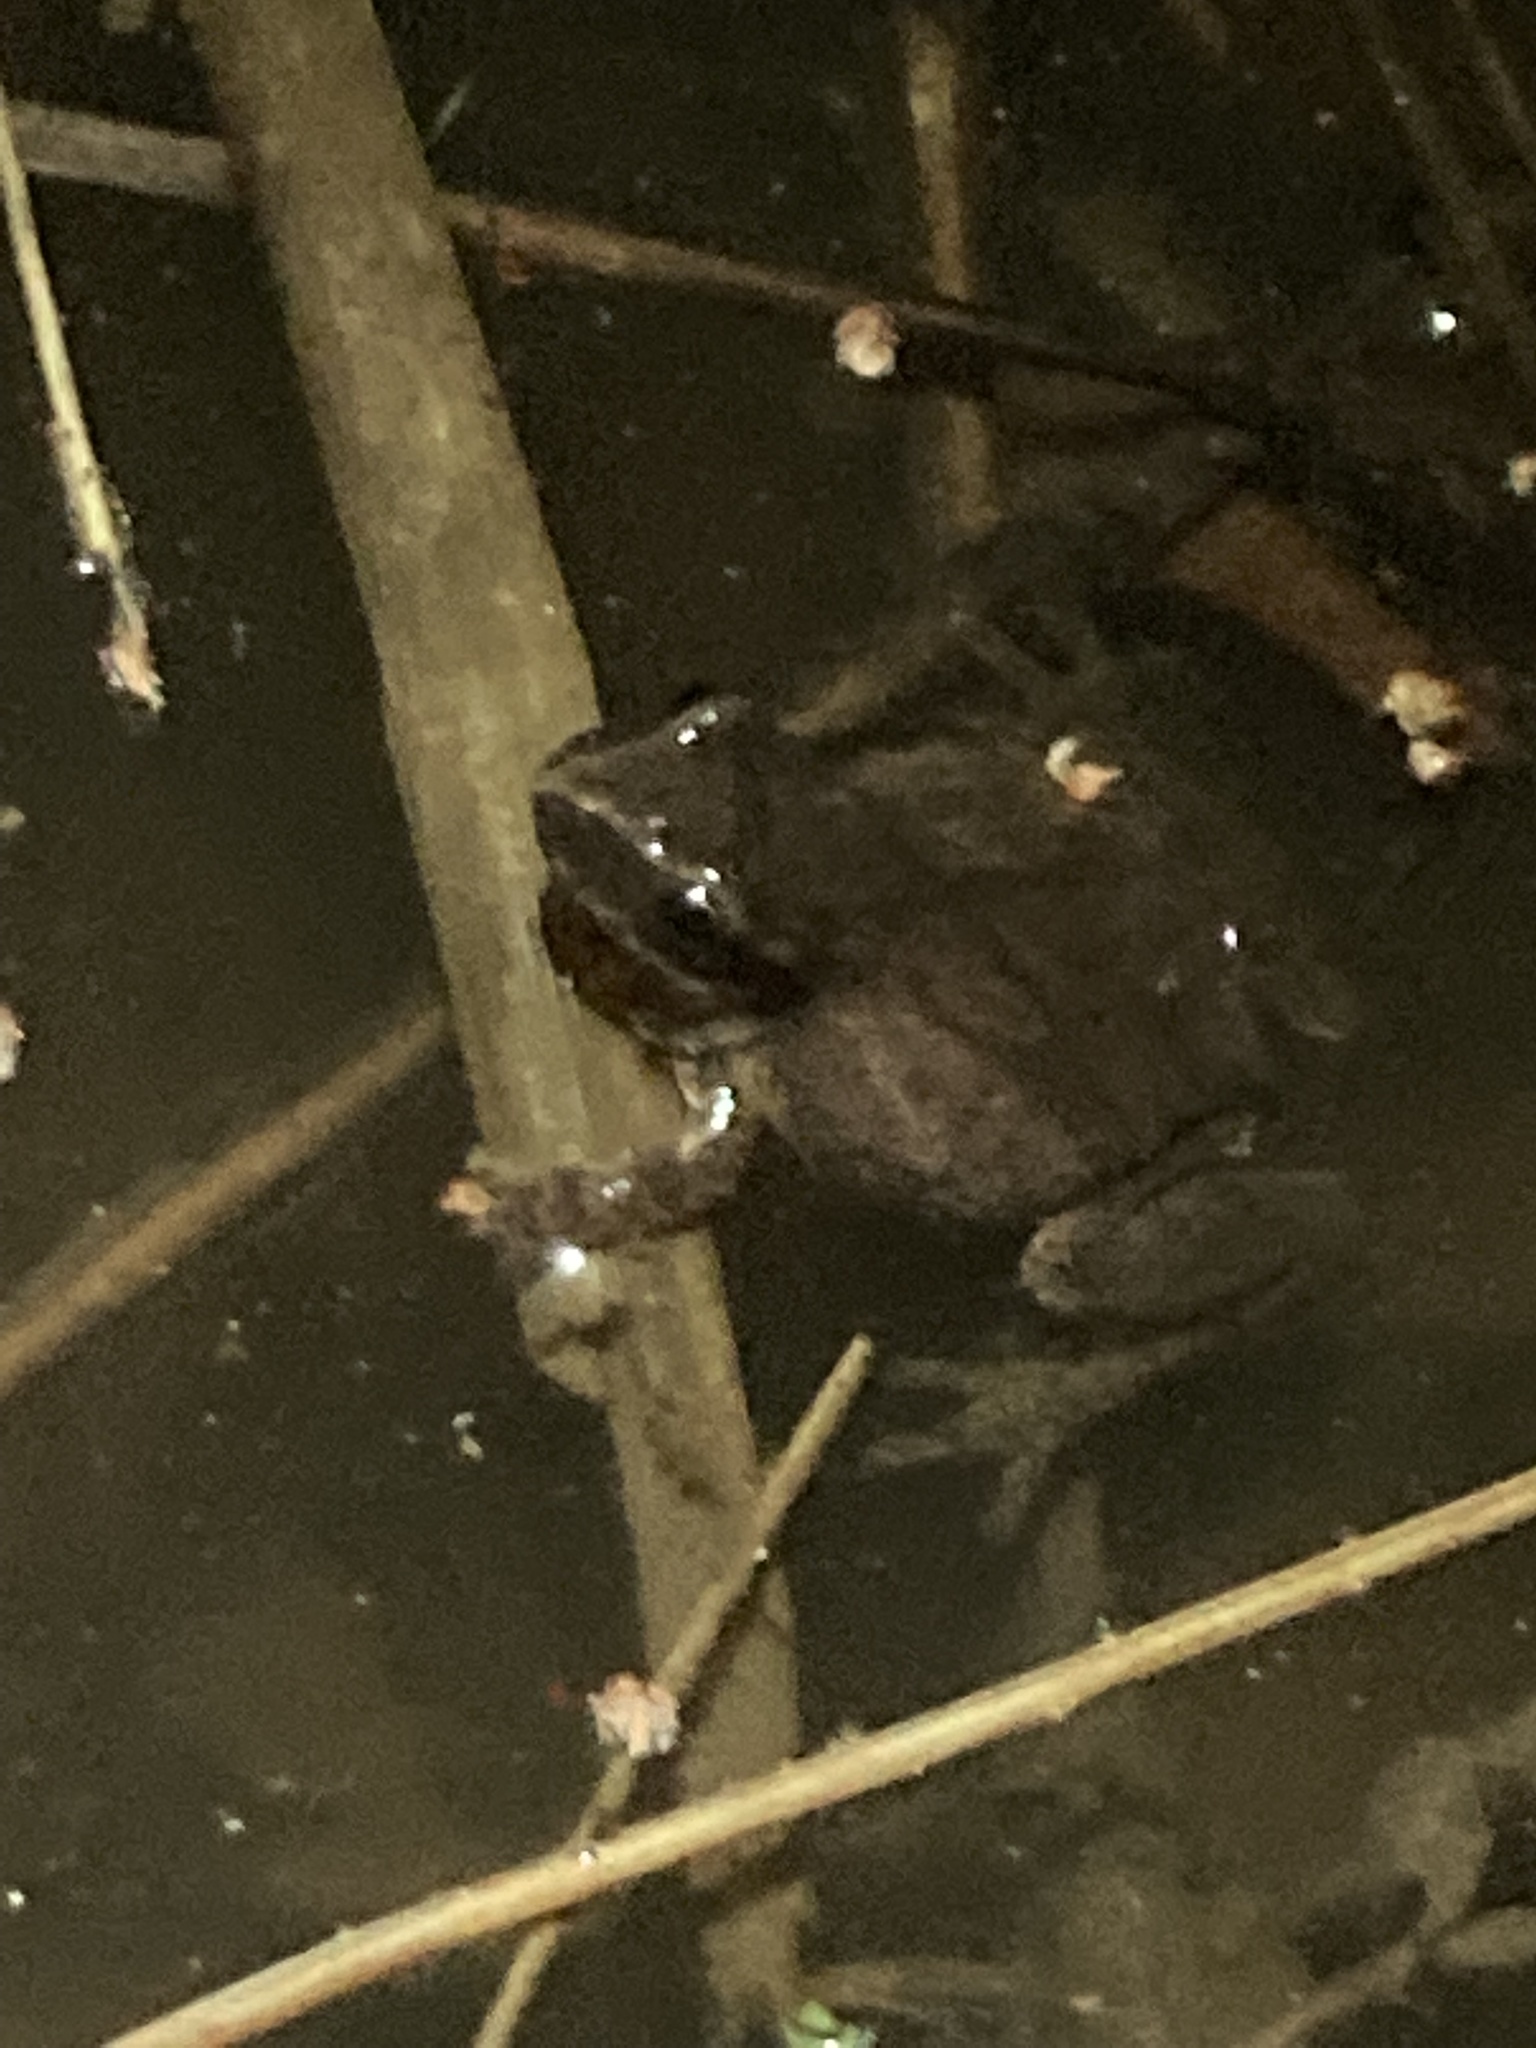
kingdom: Animalia
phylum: Chordata
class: Amphibia
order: Anura
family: Hylidae
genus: Pseudacris
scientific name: Pseudacris crucifer
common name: Spring peeper
